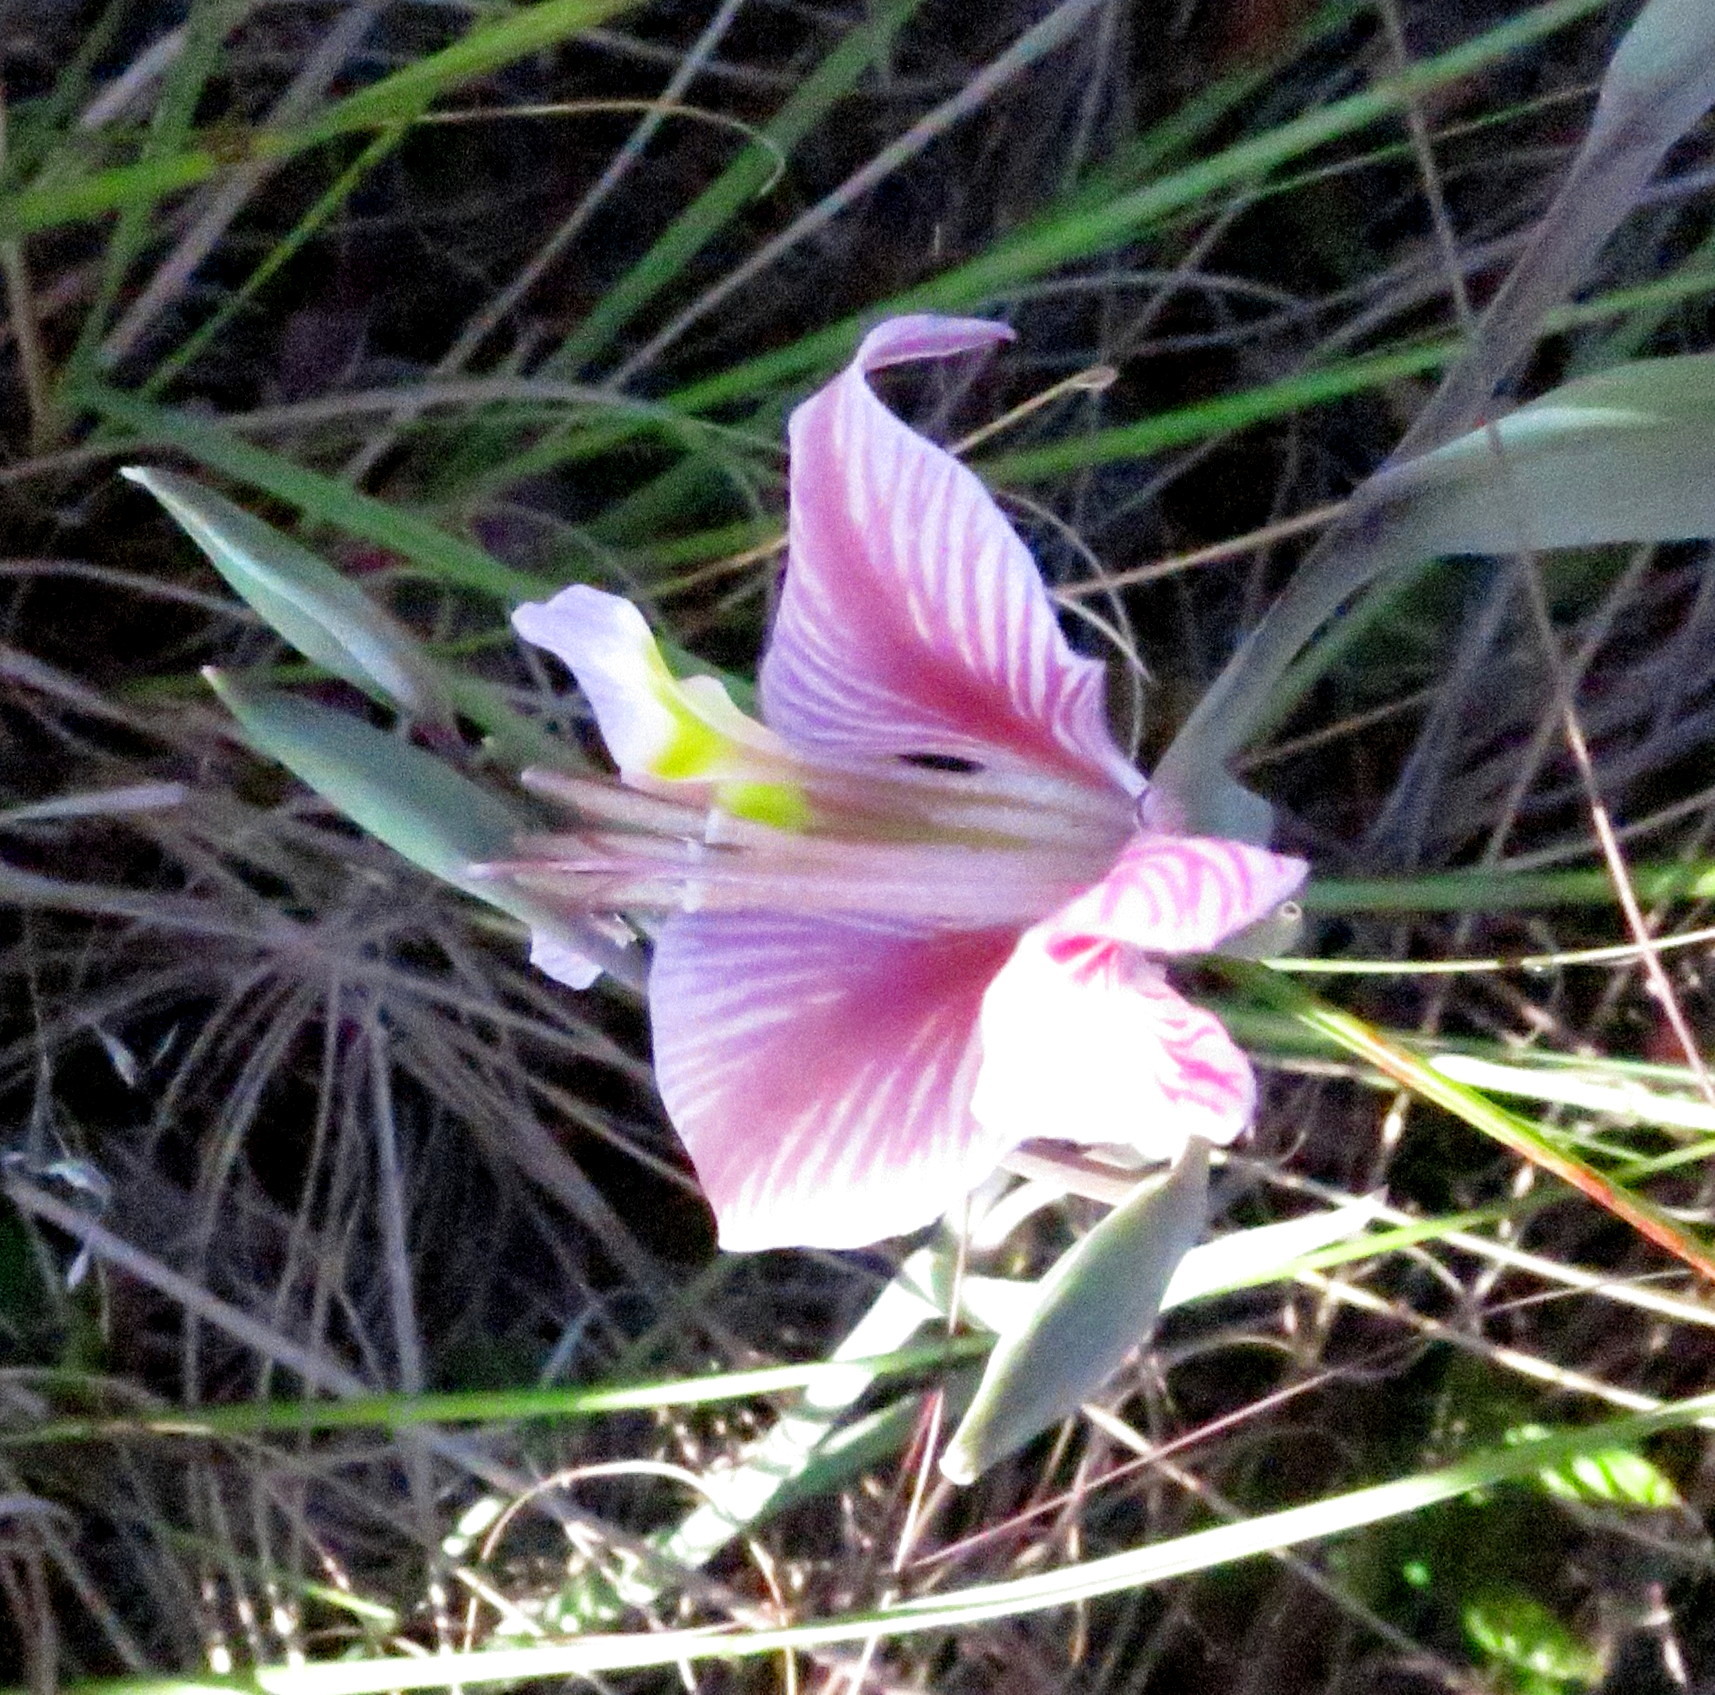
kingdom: Plantae
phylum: Tracheophyta
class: Liliopsida
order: Asparagales
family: Iridaceae
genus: Gladiolus
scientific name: Gladiolus virescens
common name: Yellow kalkoentjie
